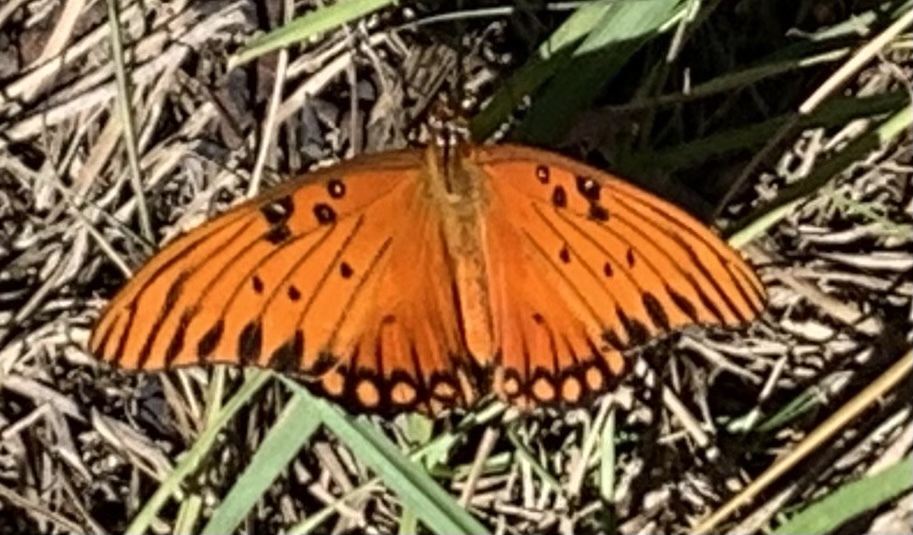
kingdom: Animalia
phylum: Arthropoda
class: Insecta
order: Lepidoptera
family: Nymphalidae
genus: Dione
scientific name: Dione vanillae
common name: Gulf fritillary
